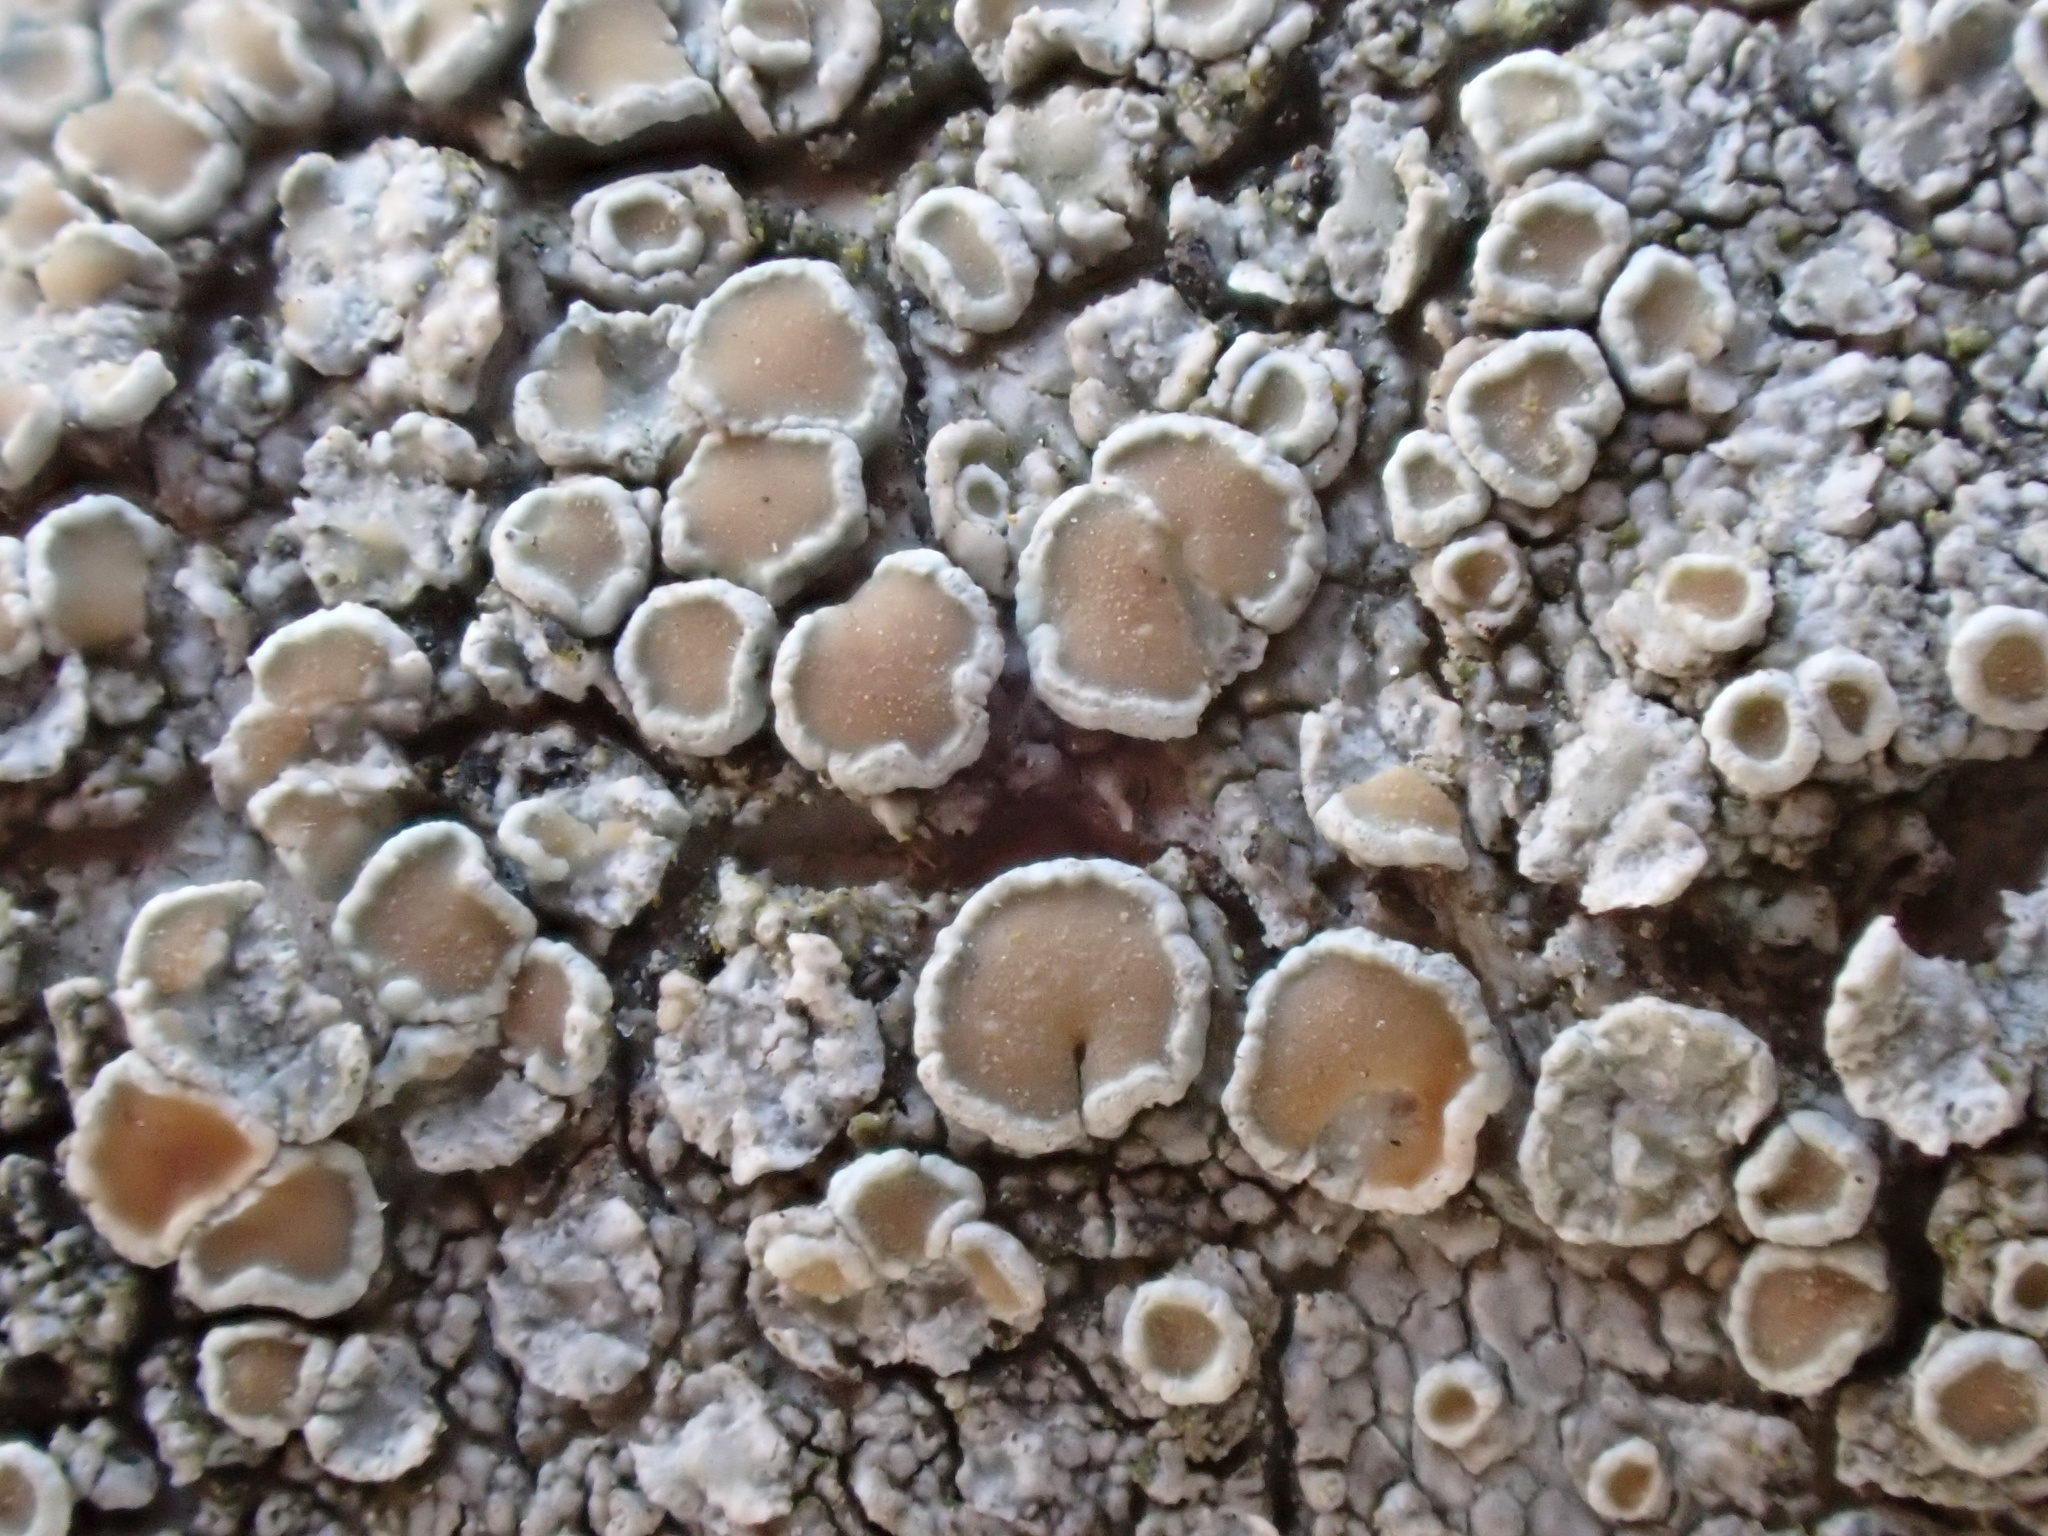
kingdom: Fungi
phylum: Ascomycota
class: Lecanoromycetes
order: Lecanorales
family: Lecanoraceae
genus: Lecanora
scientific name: Lecanora chlarotera
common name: Brown rim-lichen
